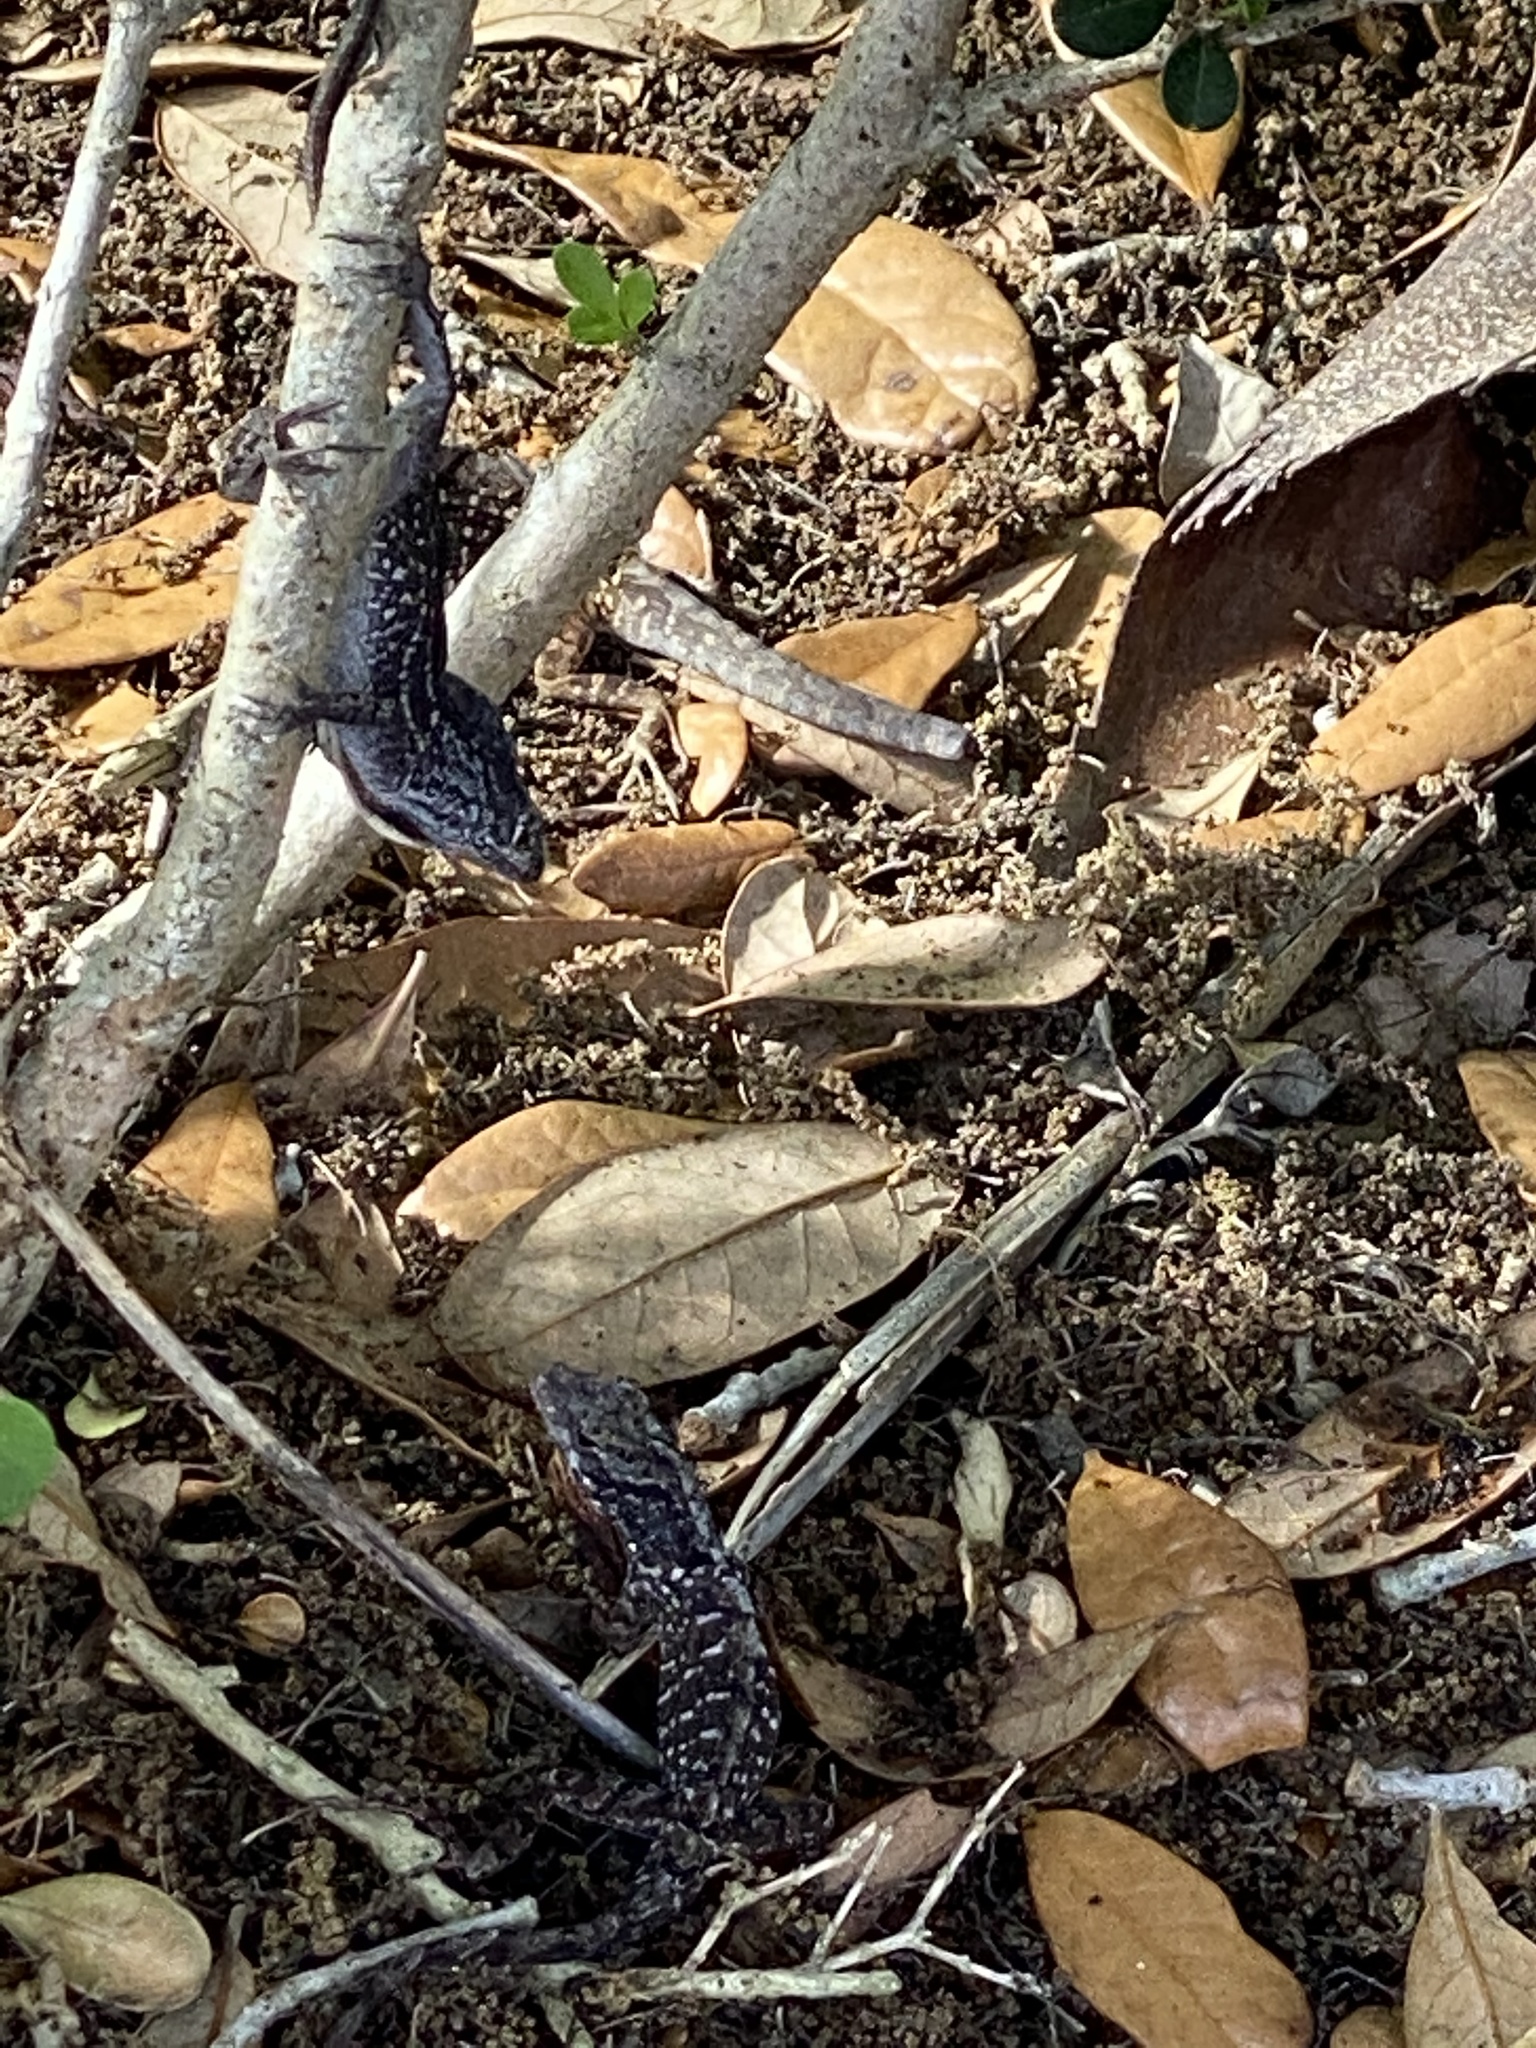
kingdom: Animalia
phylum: Chordata
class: Squamata
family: Dactyloidae
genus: Anolis
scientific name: Anolis sagrei
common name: Brown anole
